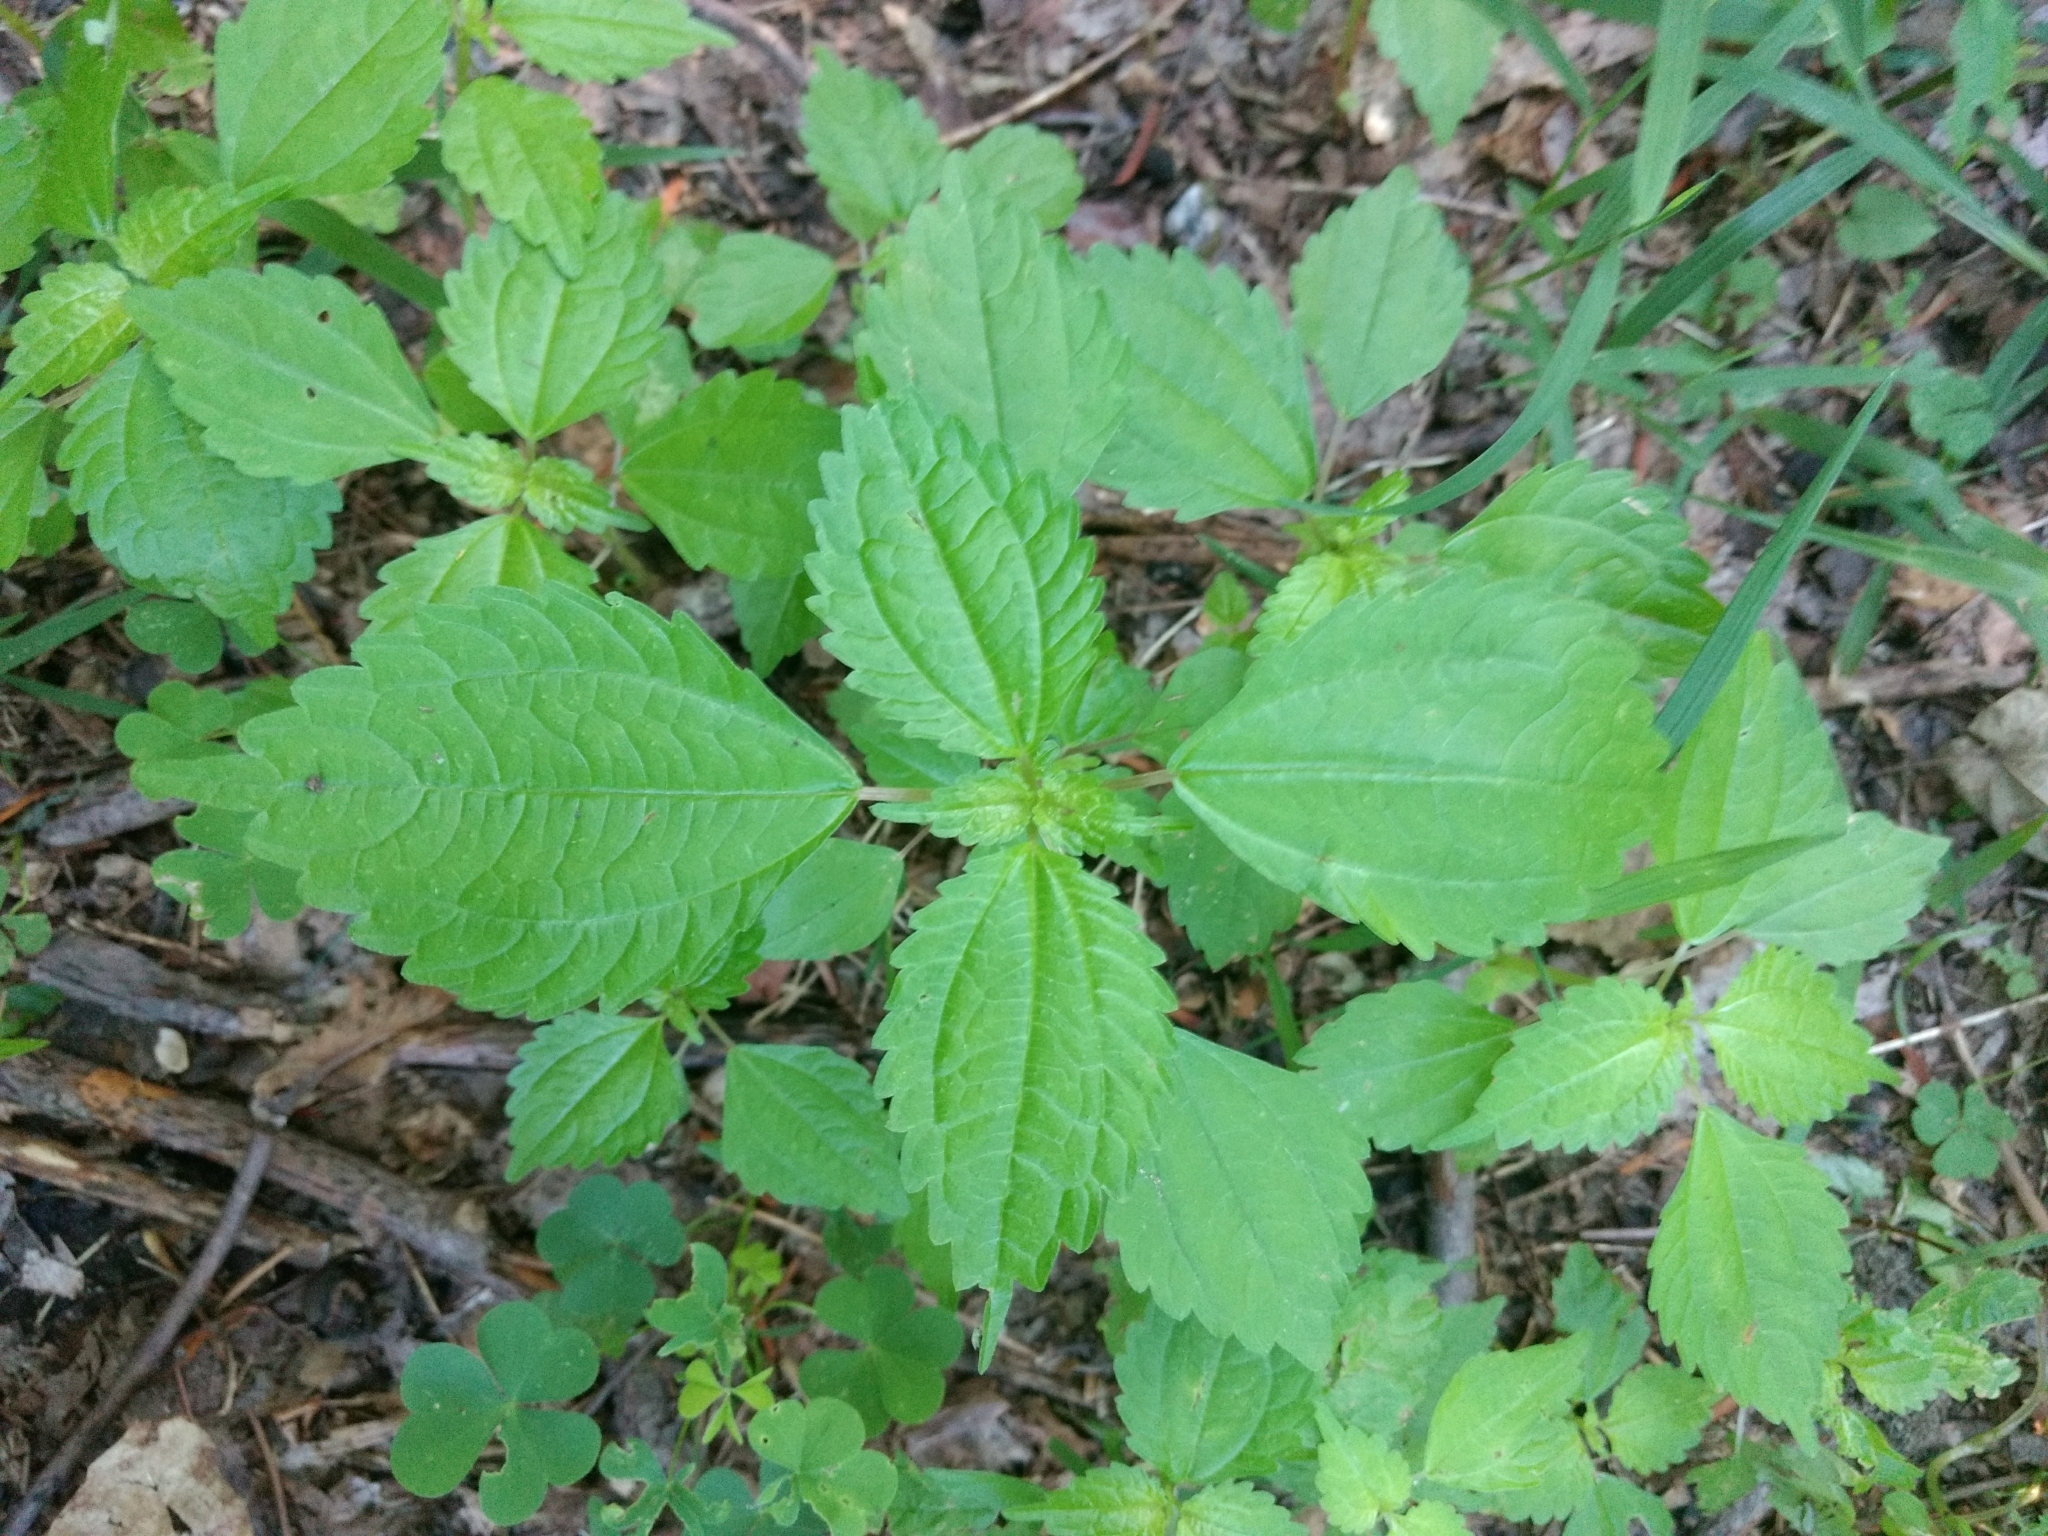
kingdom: Plantae
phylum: Tracheophyta
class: Magnoliopsida
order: Rosales
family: Urticaceae
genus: Pilea
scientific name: Pilea pumila
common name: Clearweed
